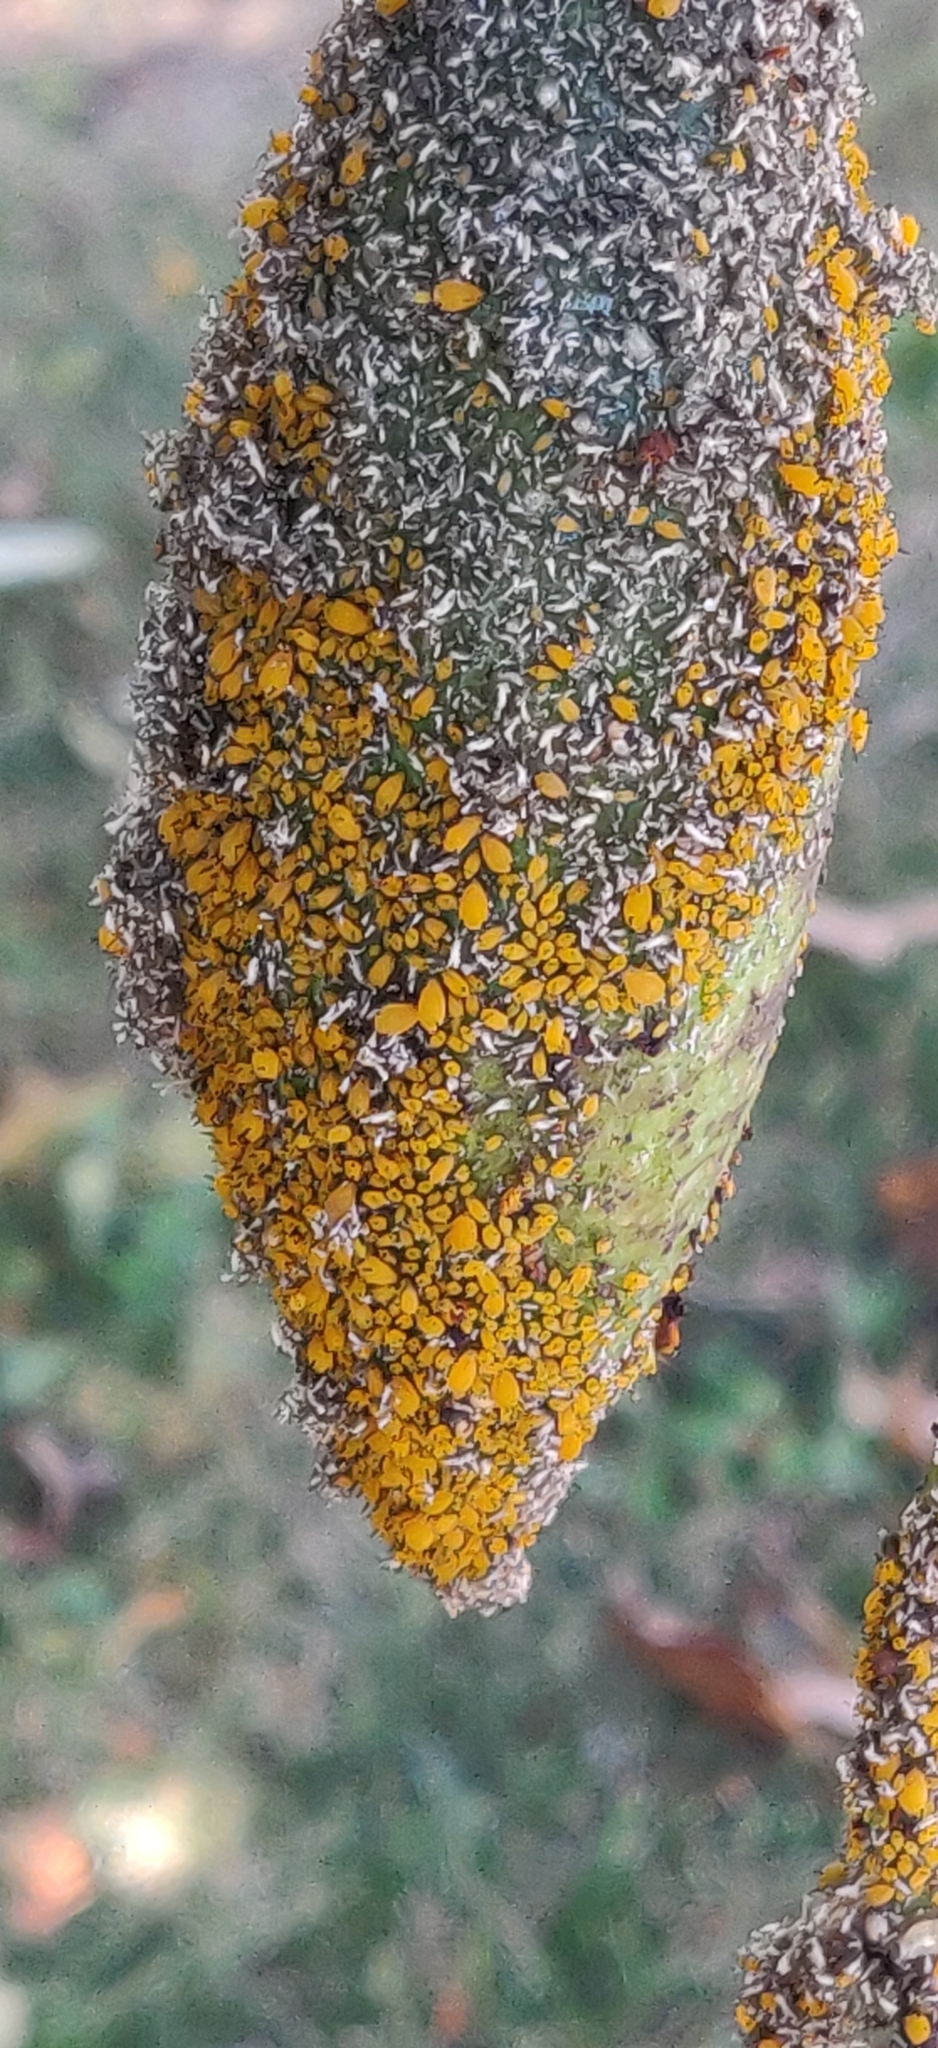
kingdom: Animalia
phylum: Arthropoda
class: Insecta
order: Hemiptera
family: Aphididae
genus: Aphis
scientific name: Aphis nerii
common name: Oleander aphid
